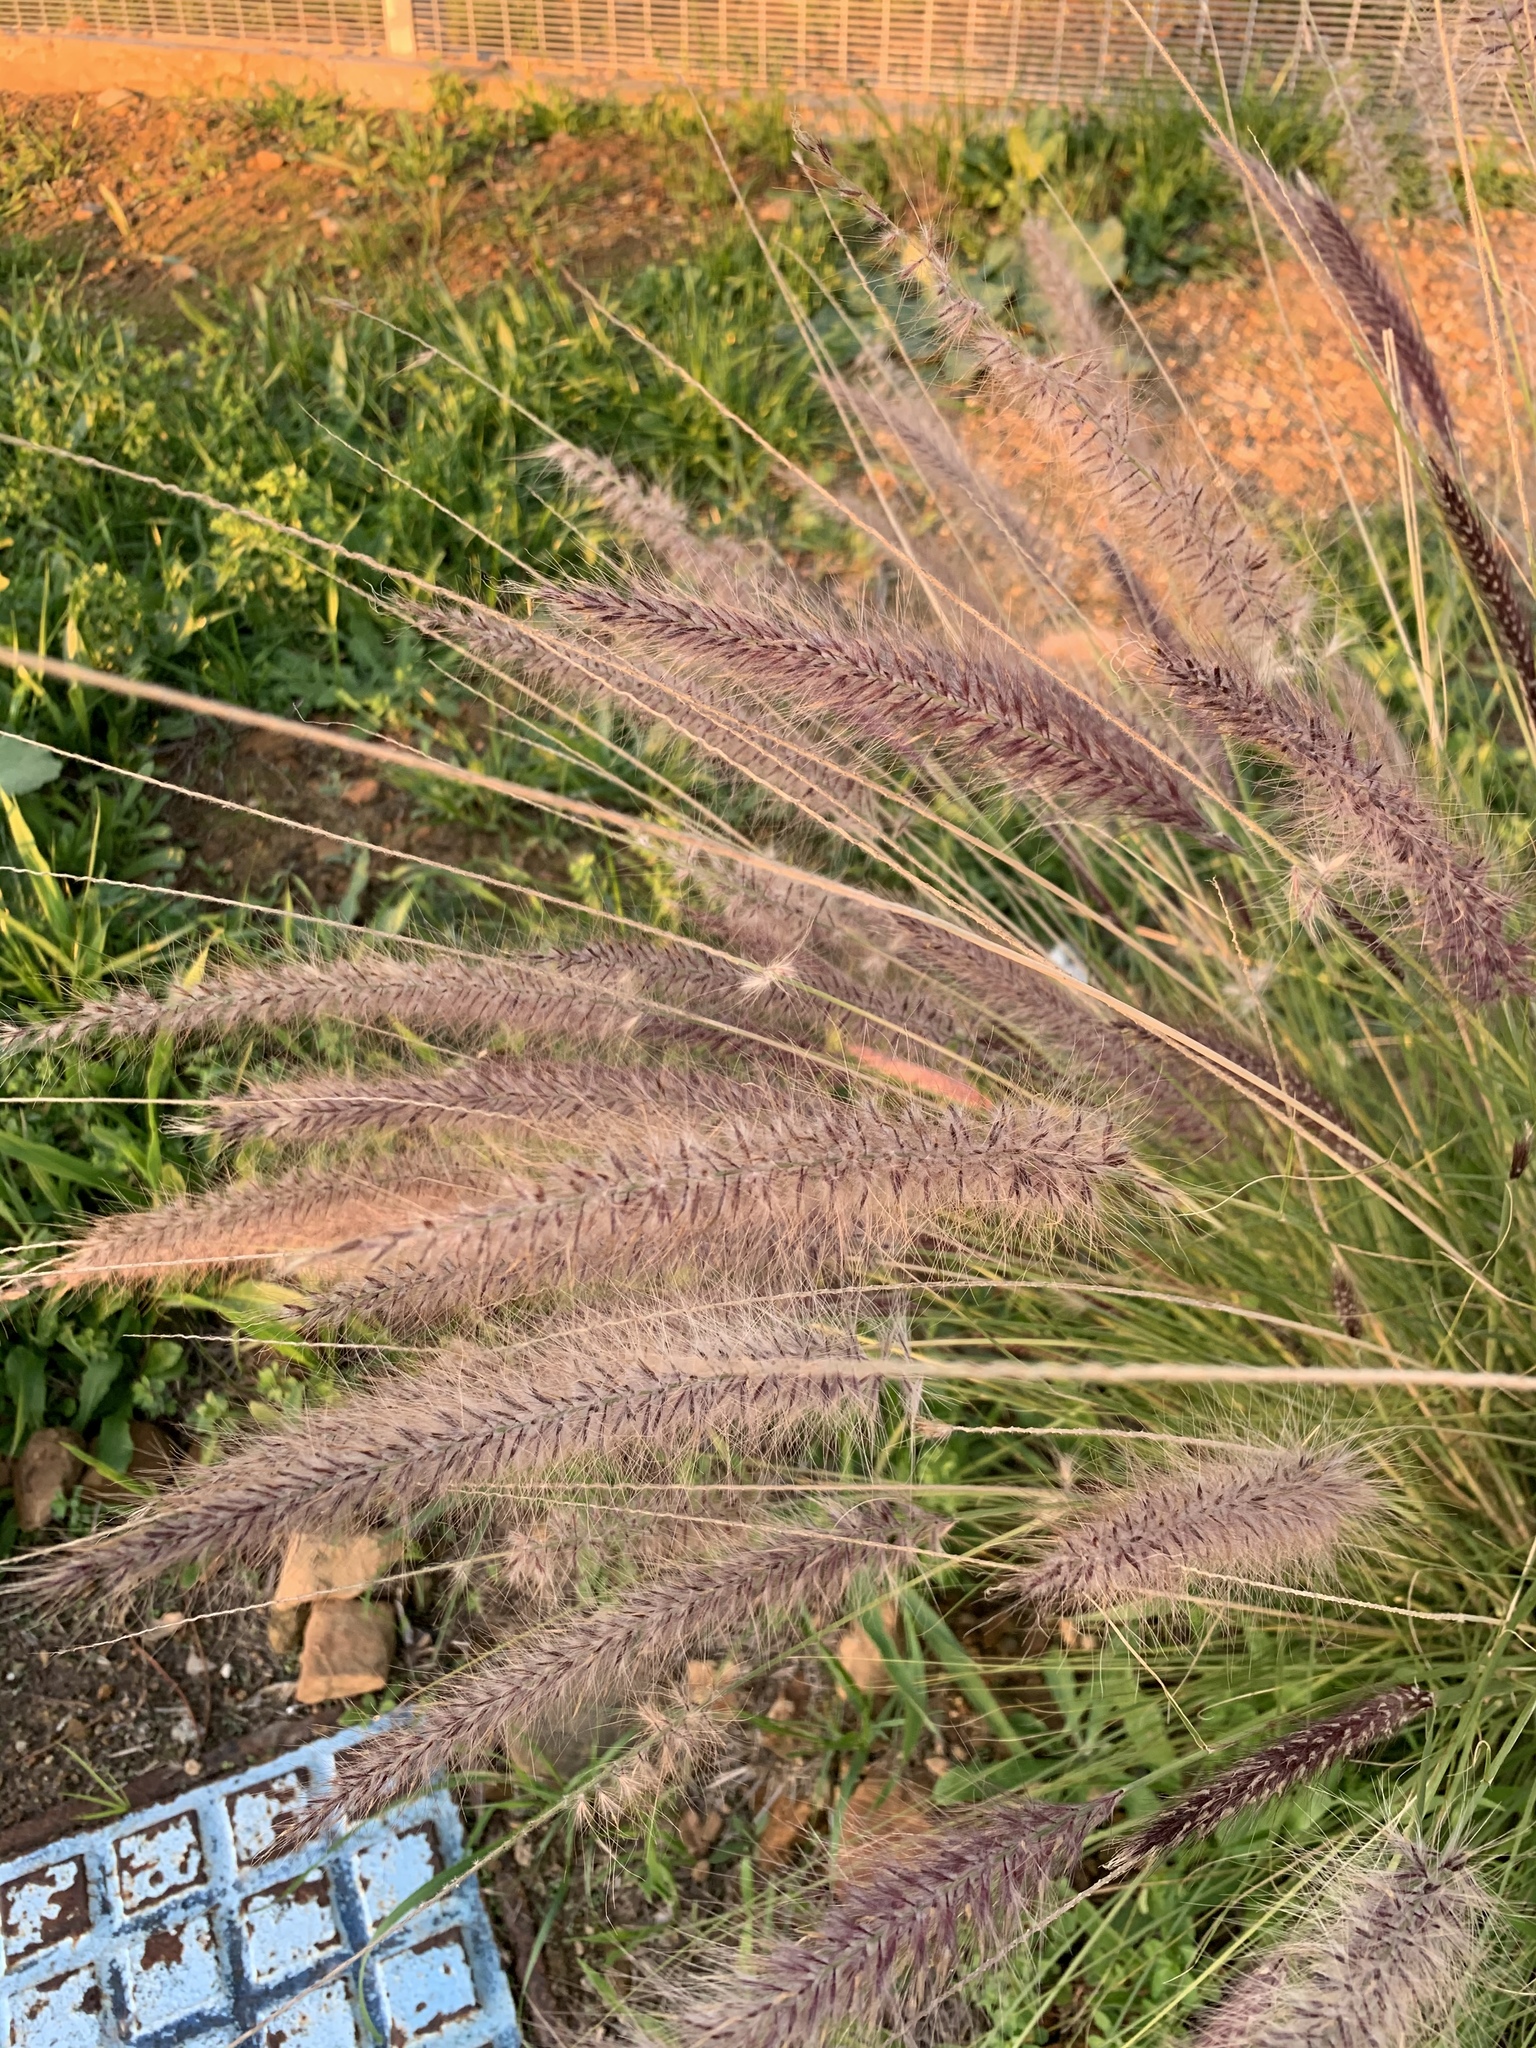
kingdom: Plantae
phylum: Tracheophyta
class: Liliopsida
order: Poales
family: Poaceae
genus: Cenchrus
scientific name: Cenchrus setaceus
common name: Crimson fountaingrass
